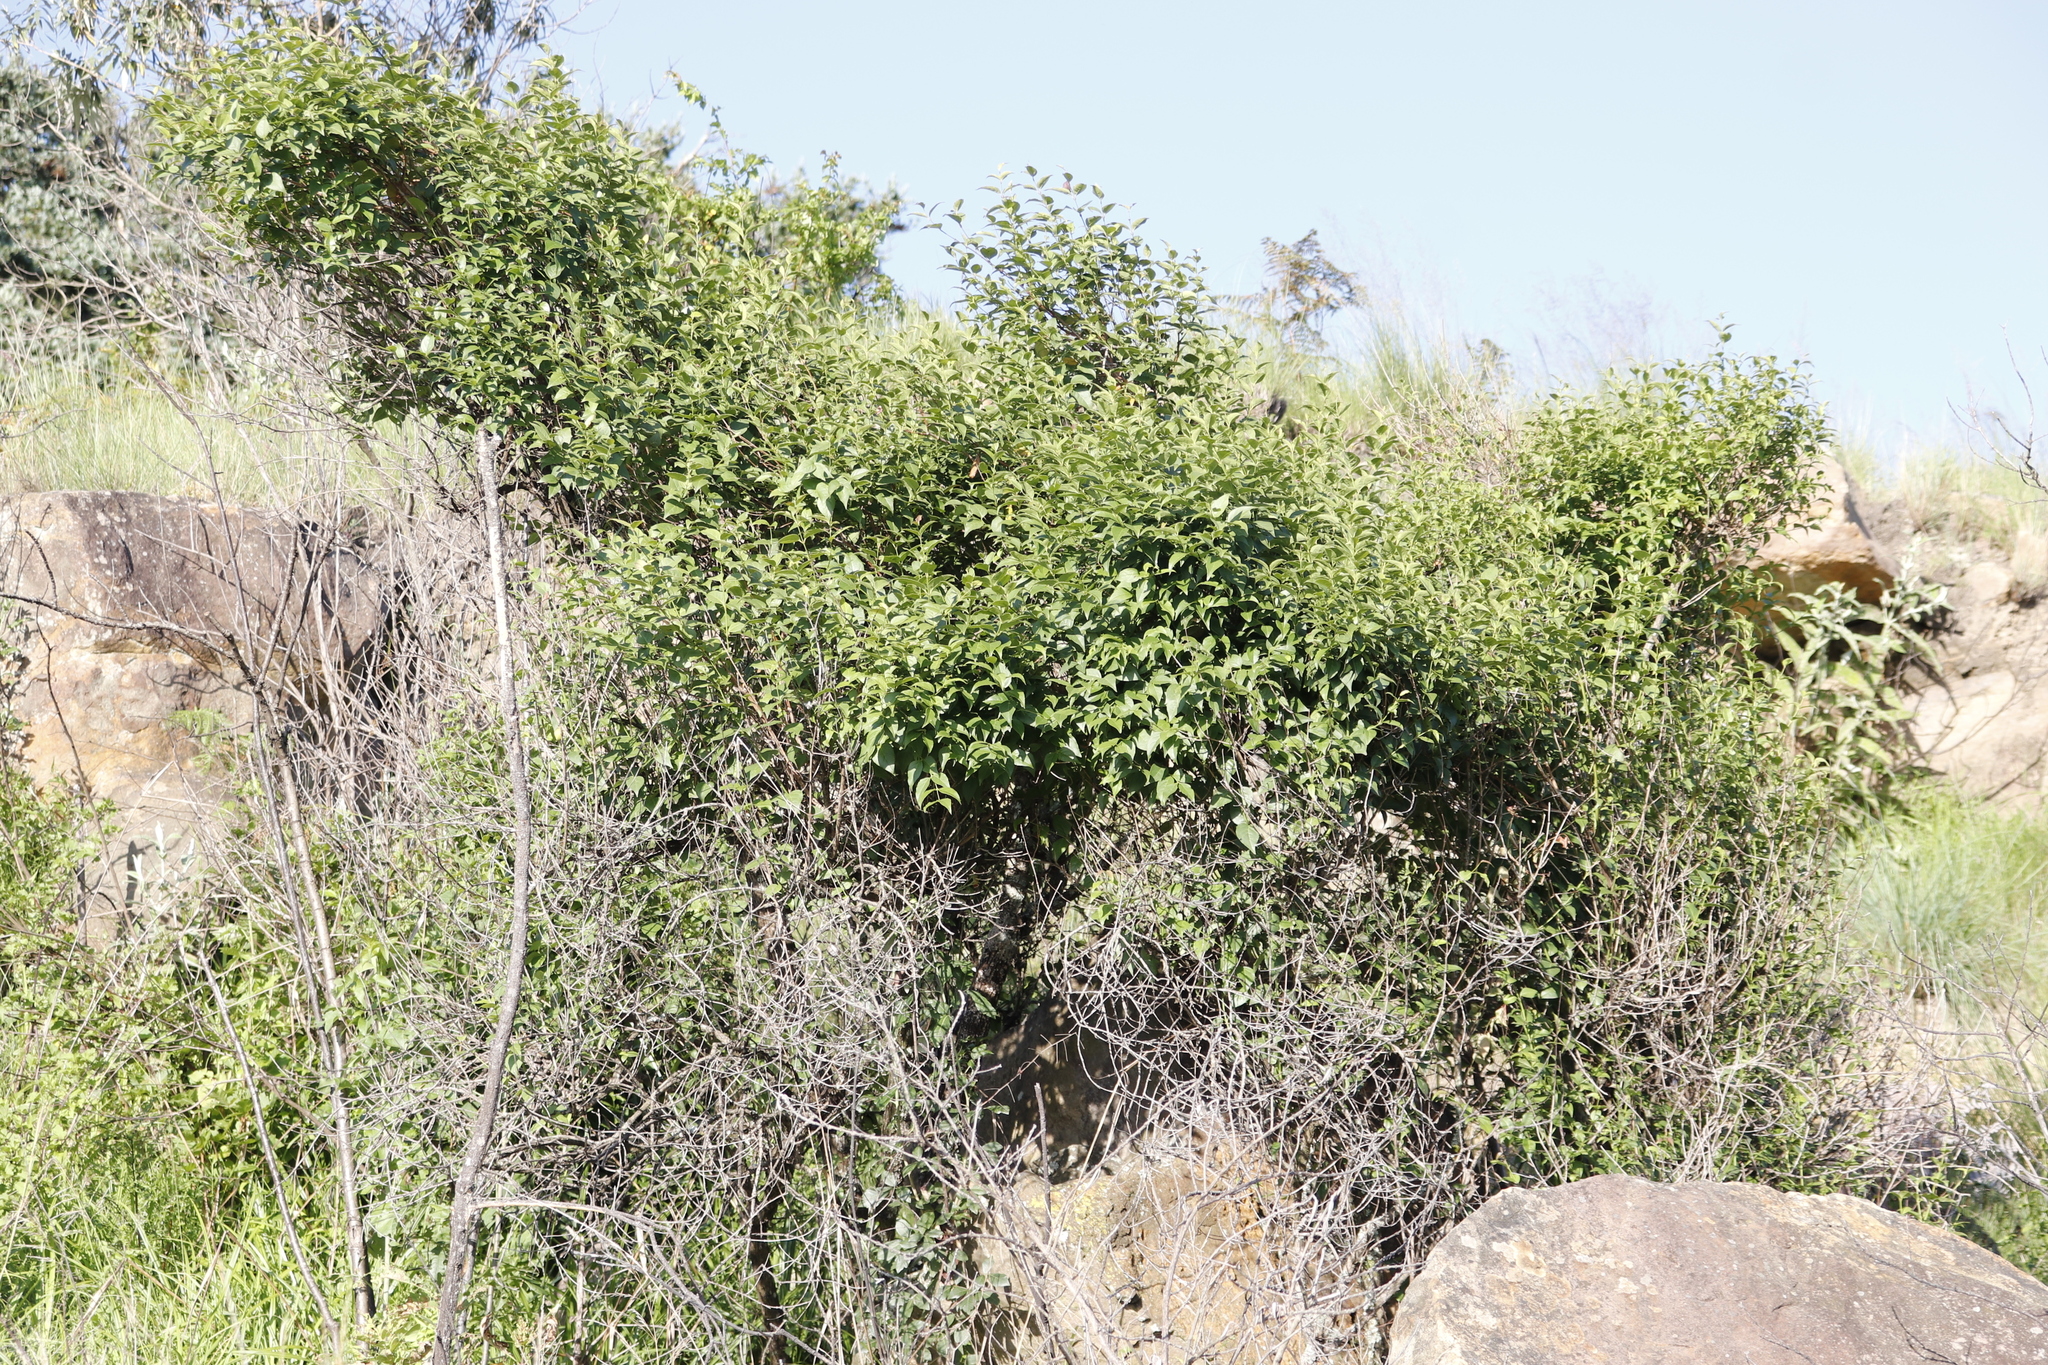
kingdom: Plantae
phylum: Tracheophyta
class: Magnoliopsida
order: Lamiales
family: Stilbaceae
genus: Halleria
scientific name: Halleria lucida
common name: Tree fuschia
